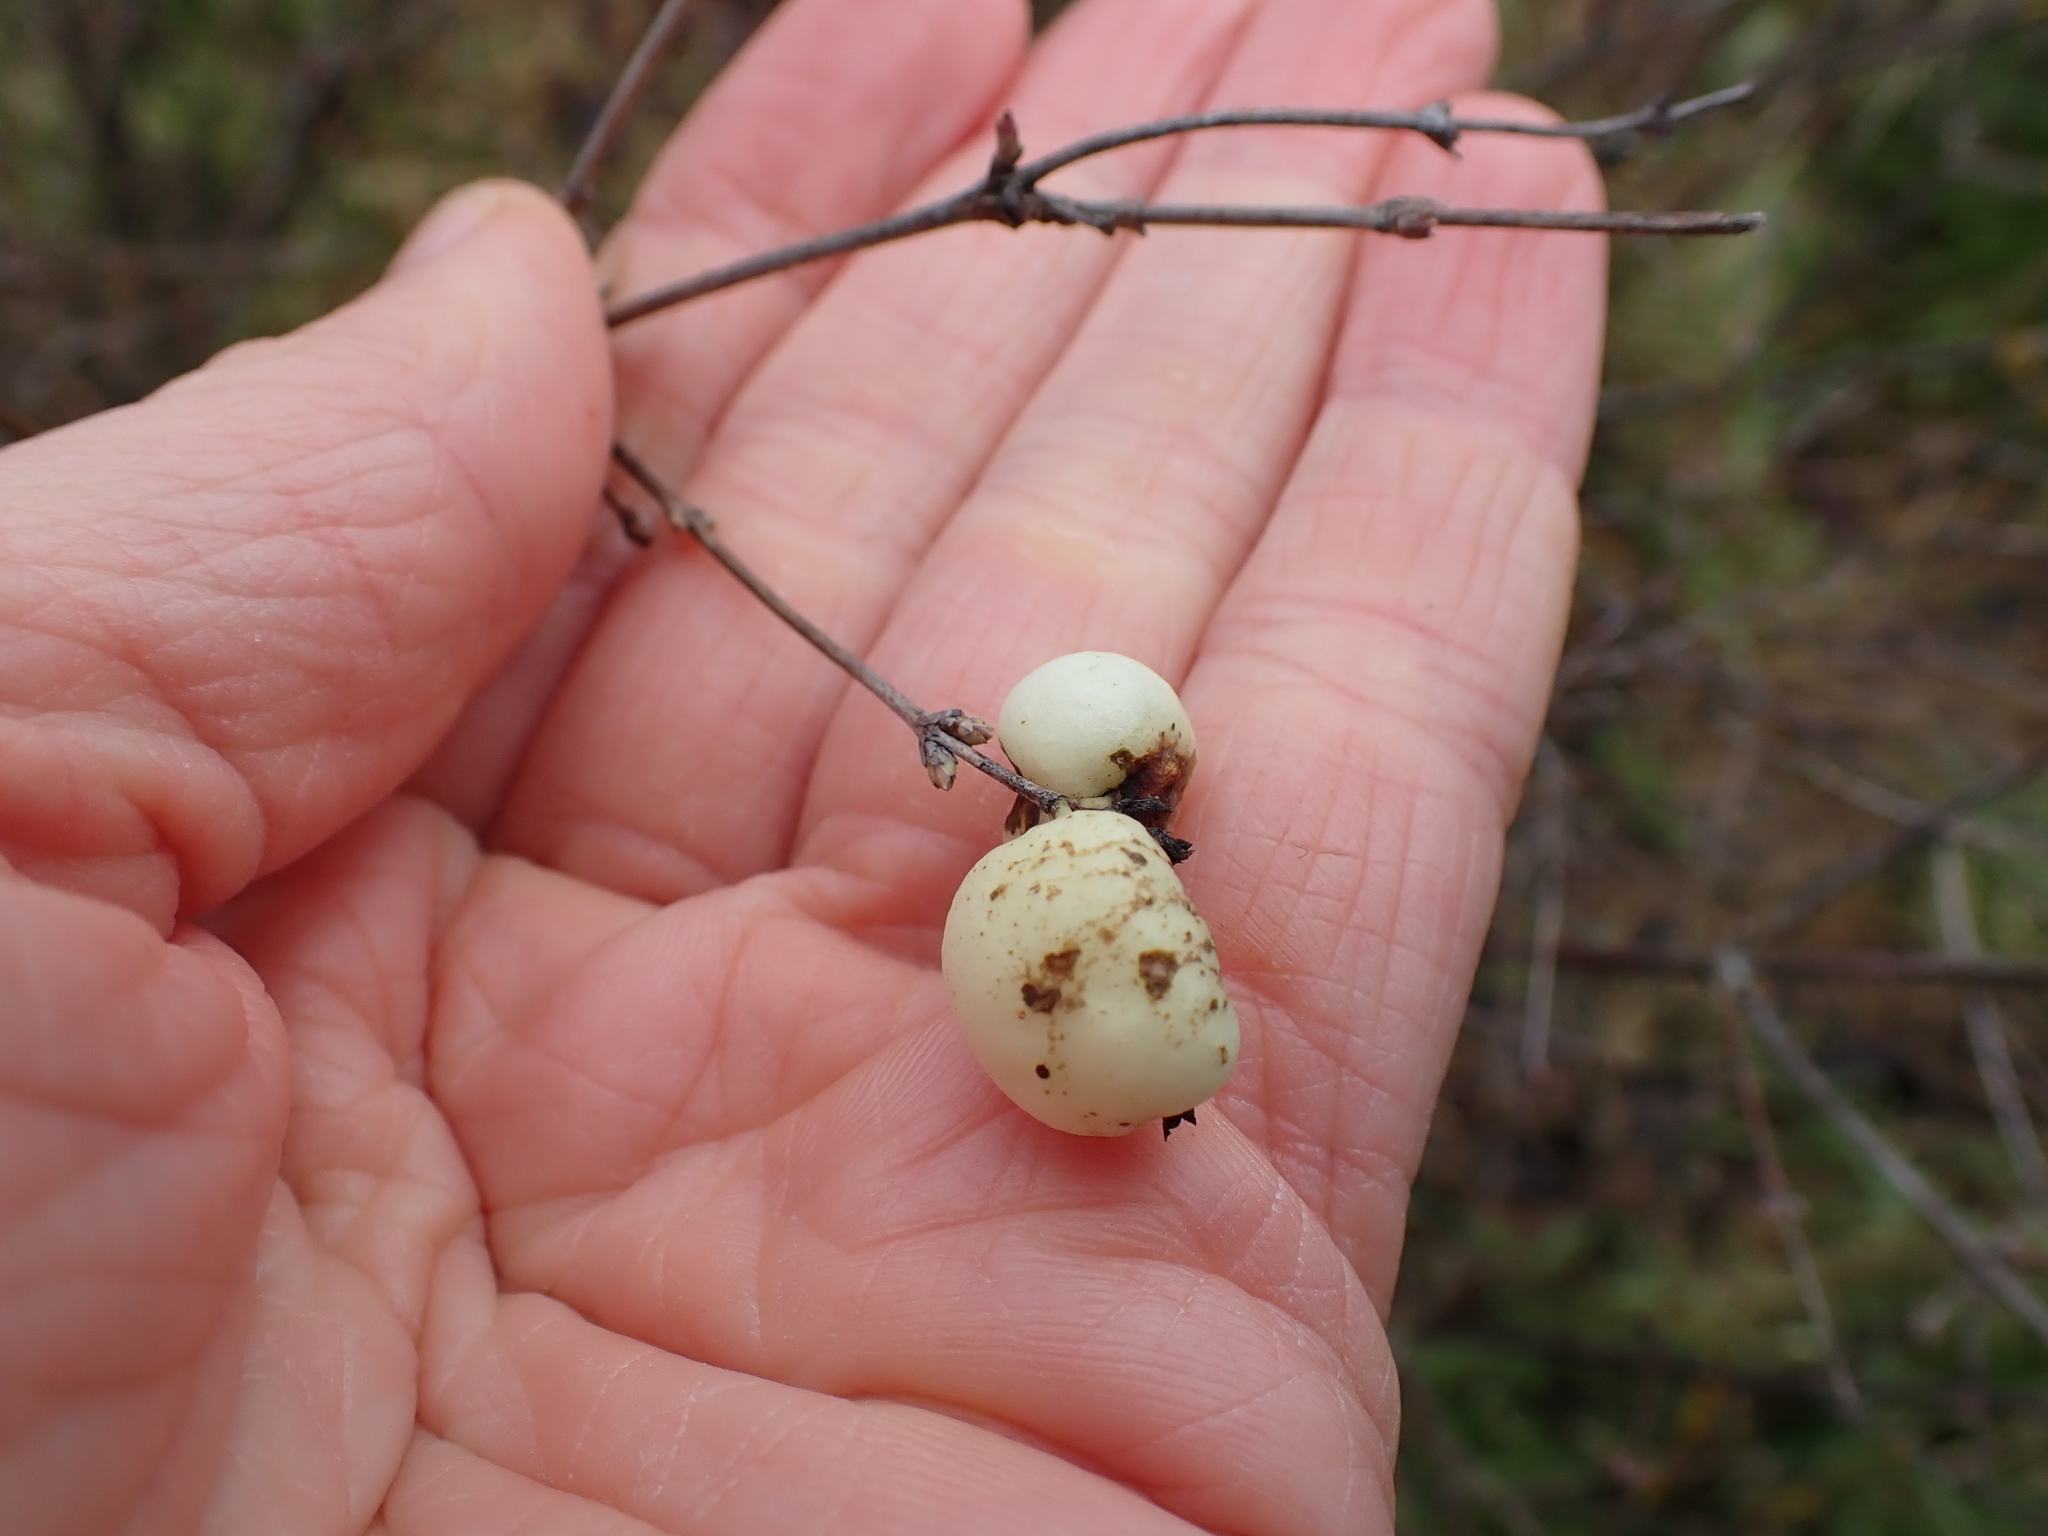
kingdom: Plantae
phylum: Tracheophyta
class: Magnoliopsida
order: Dipsacales
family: Caprifoliaceae
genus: Symphoricarpos
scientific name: Symphoricarpos albus
